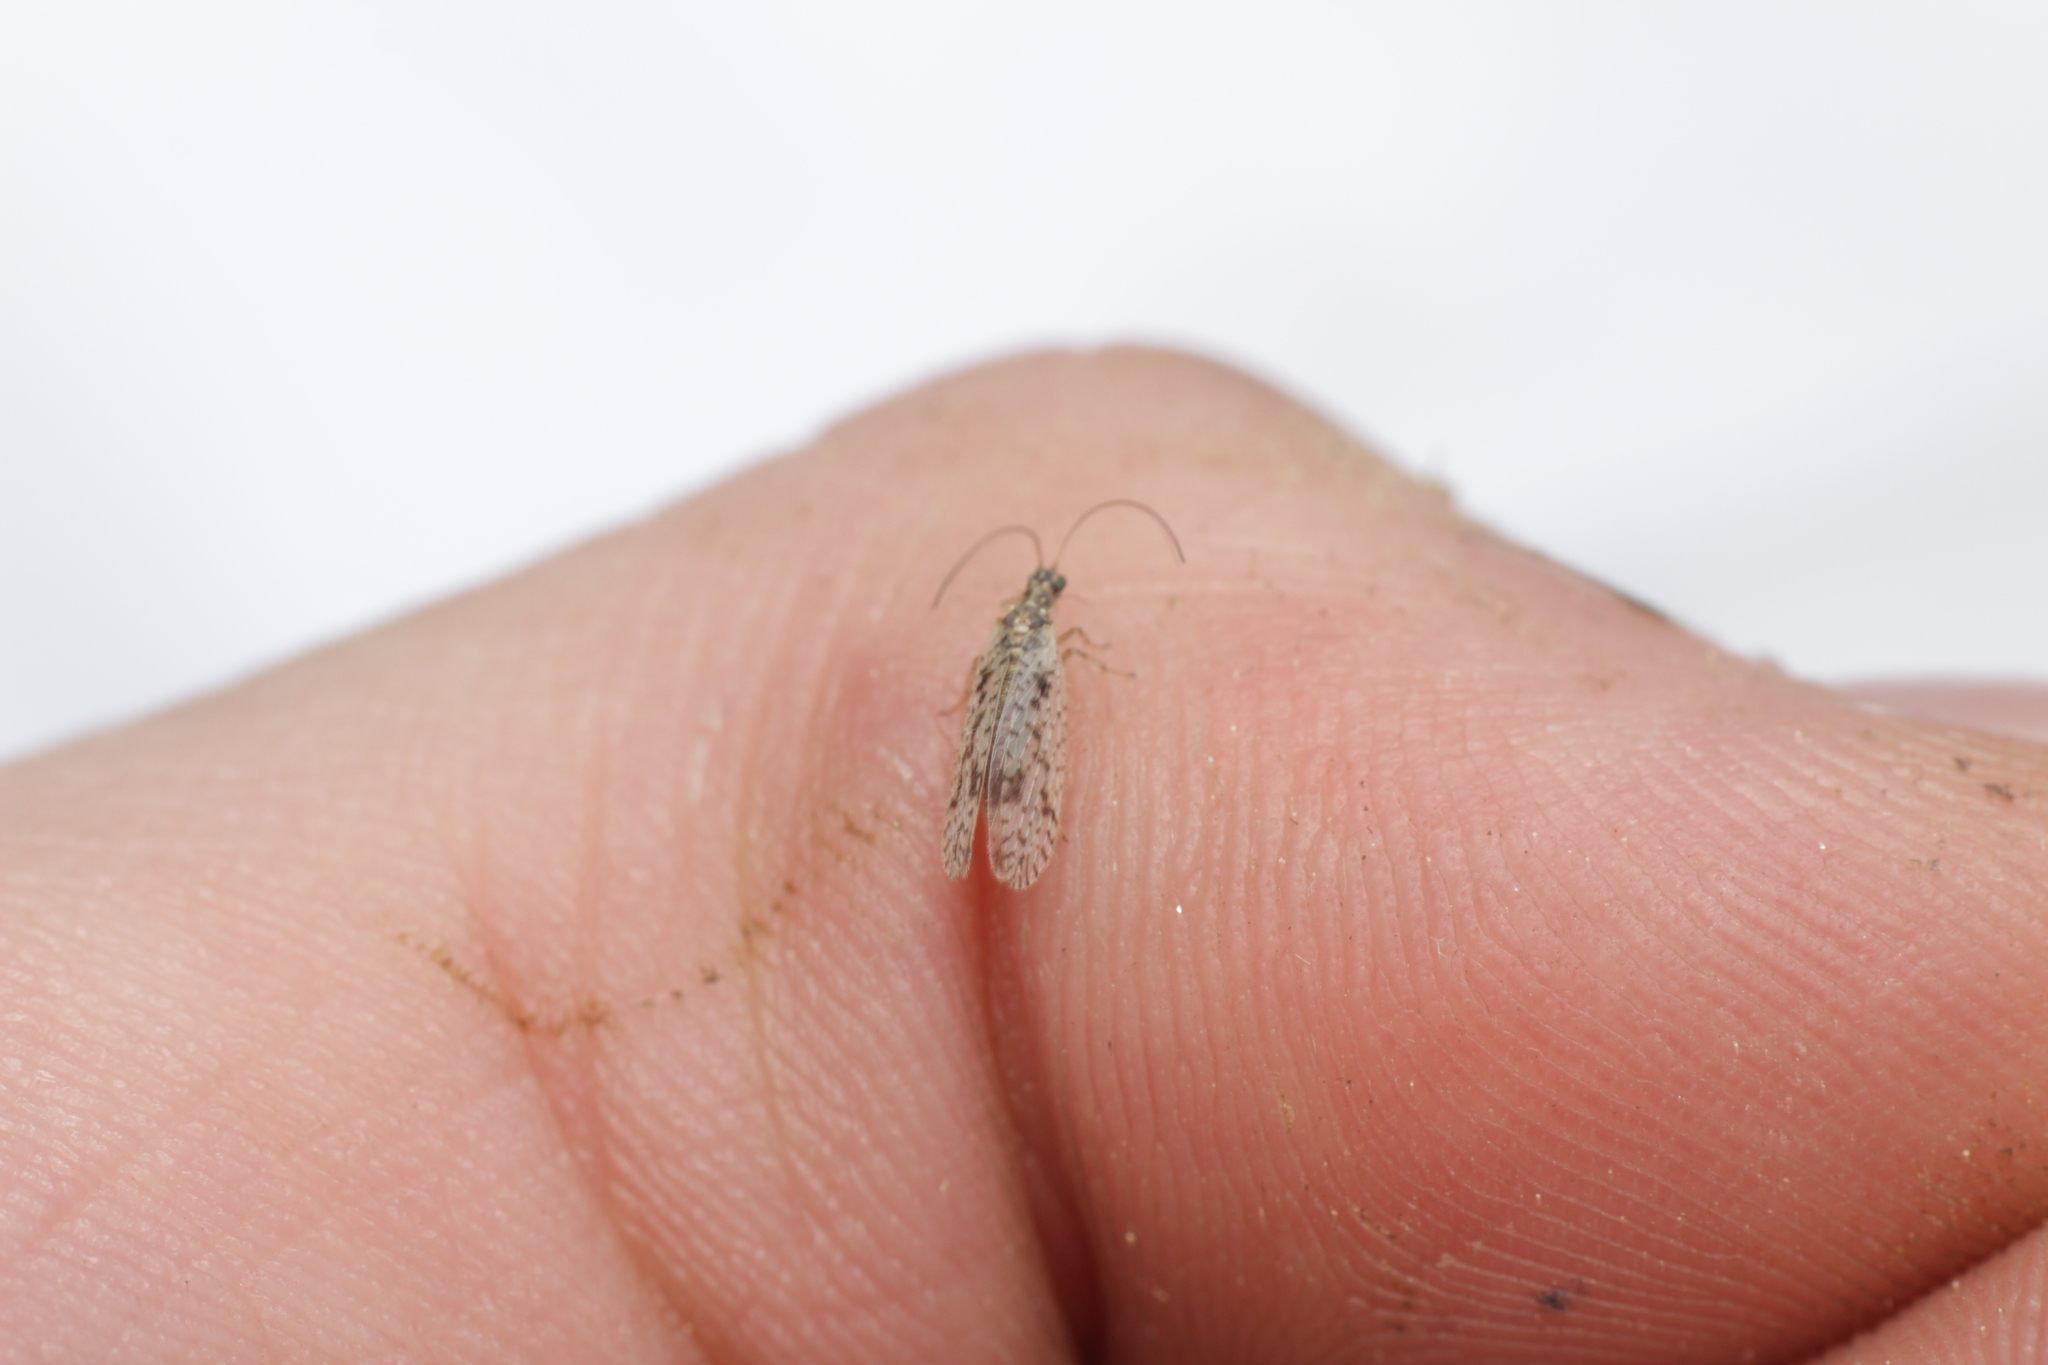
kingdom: Animalia
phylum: Arthropoda
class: Insecta
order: Neuroptera
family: Hemerobiidae
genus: Micromus
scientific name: Micromus variegatus
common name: Brown lacewing
